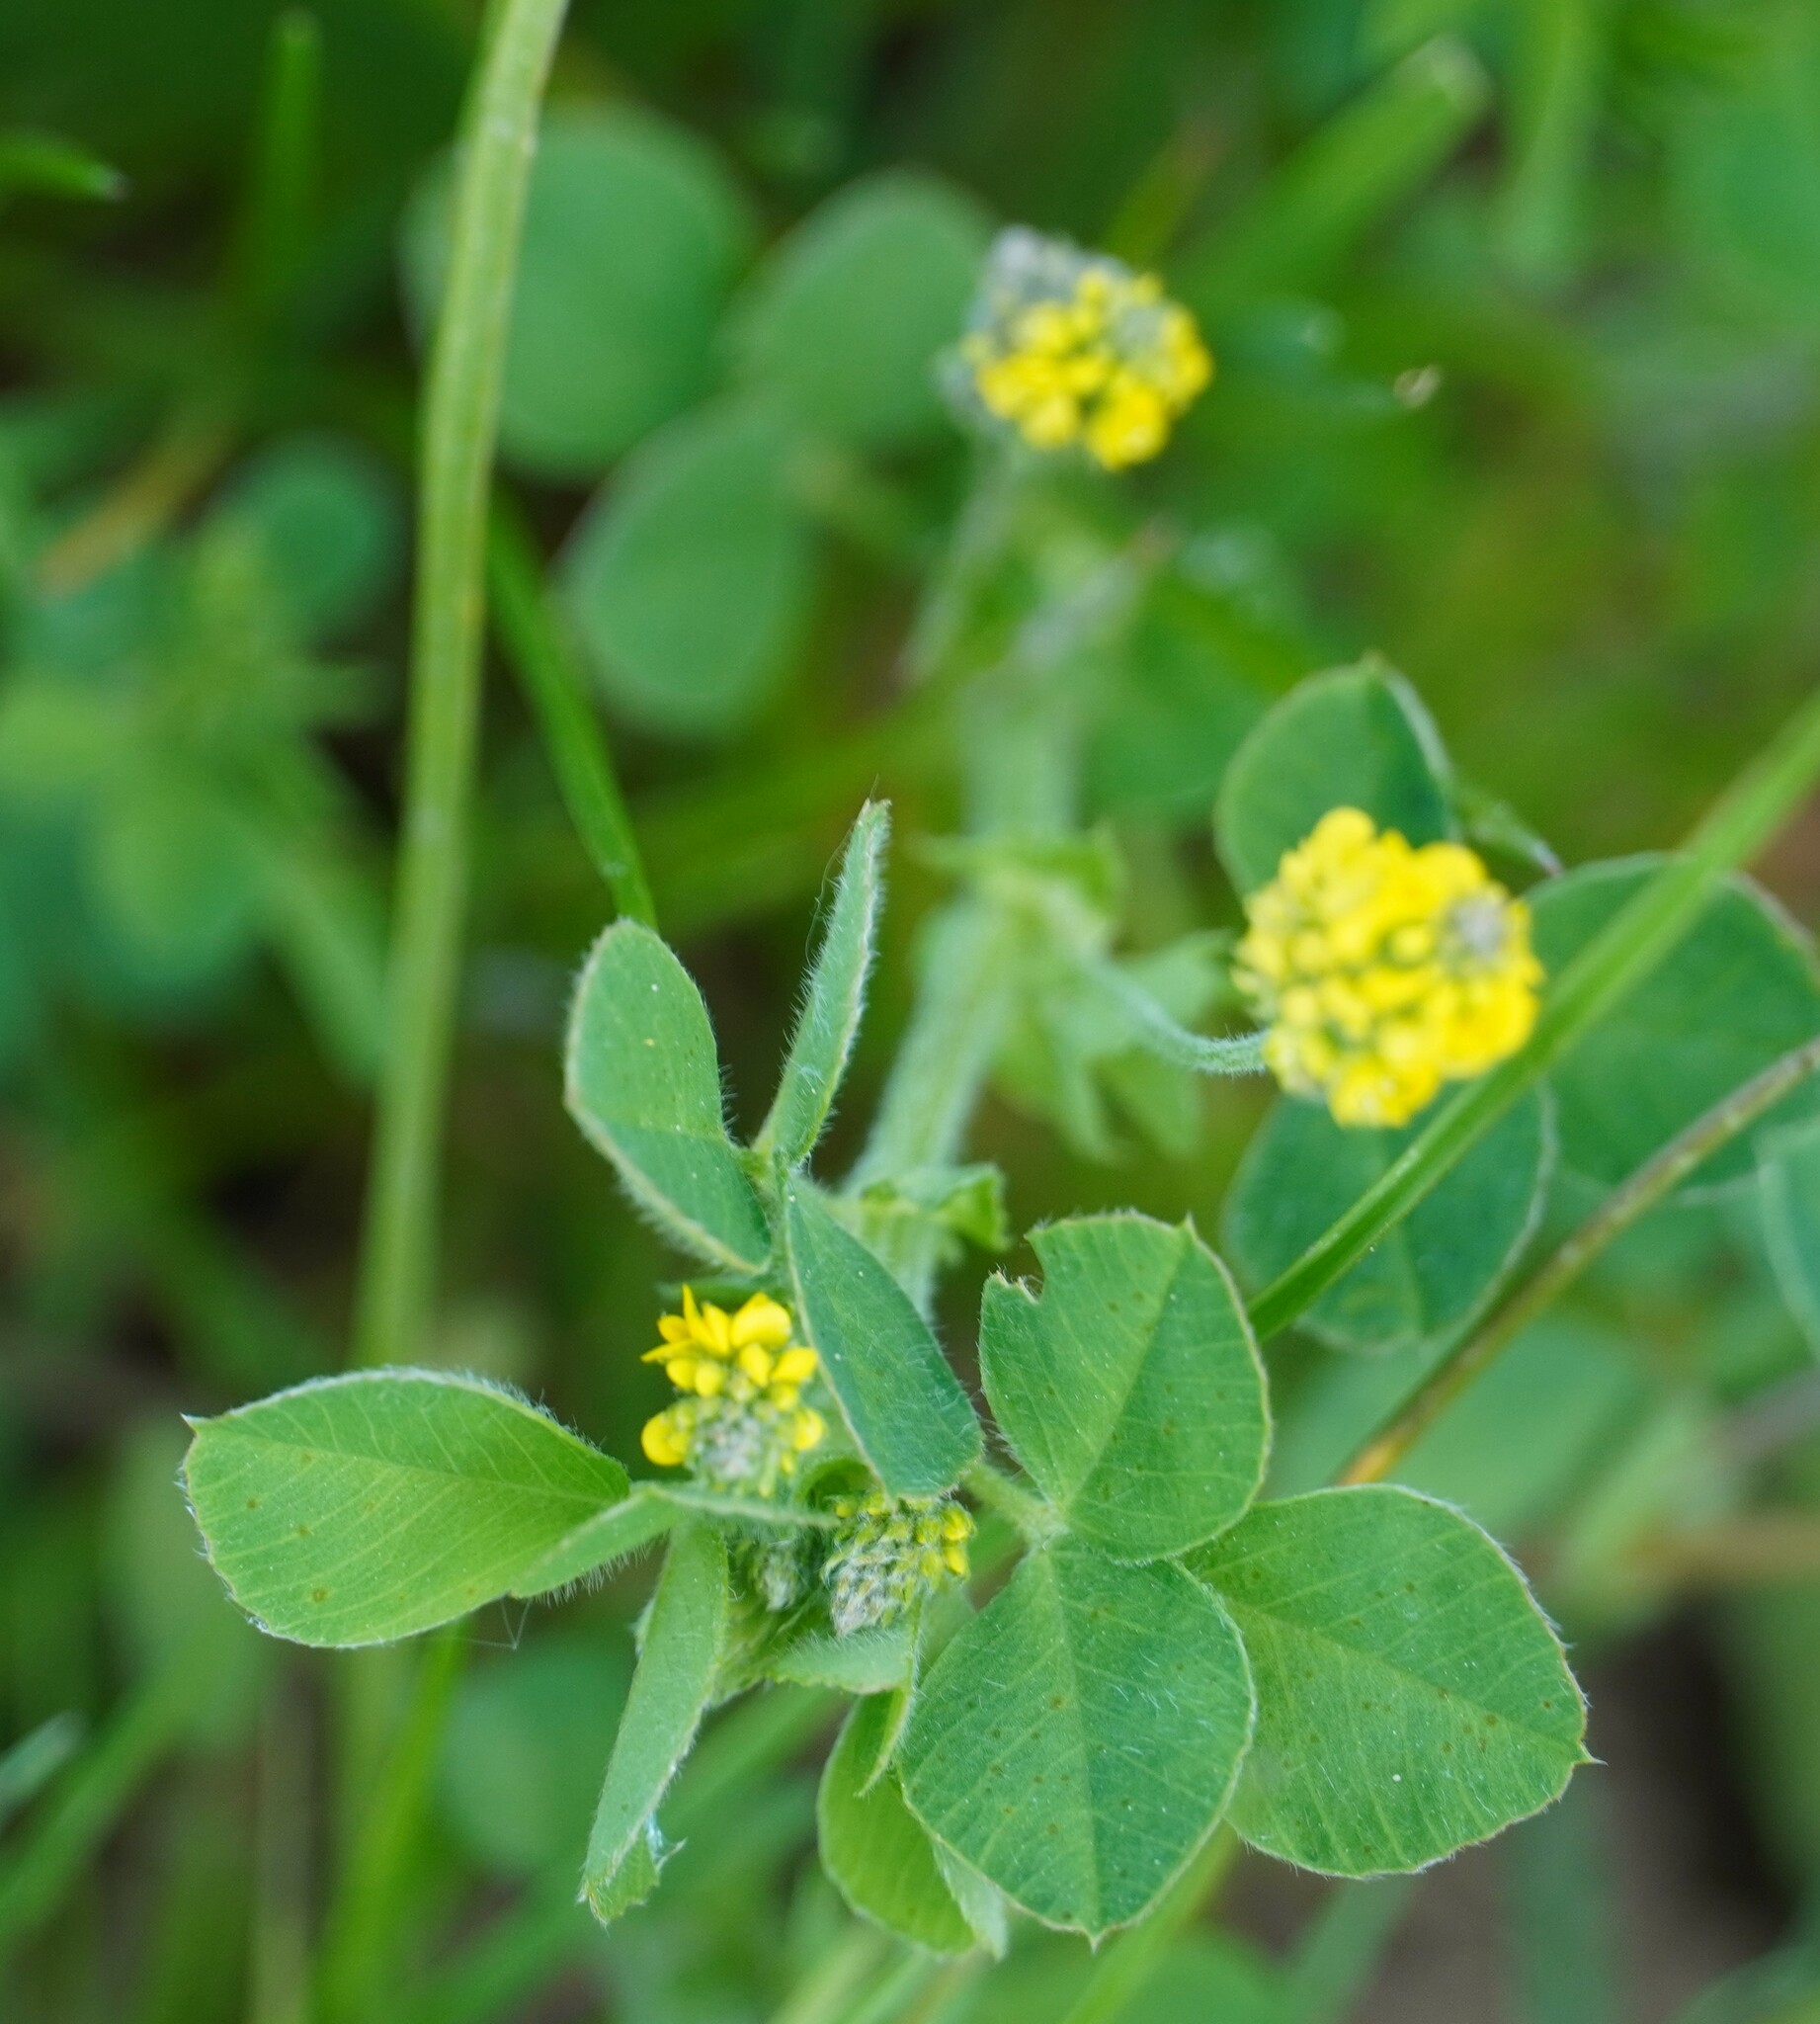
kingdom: Plantae
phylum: Tracheophyta
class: Magnoliopsida
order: Fabales
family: Fabaceae
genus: Medicago
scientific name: Medicago lupulina
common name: Black medick
